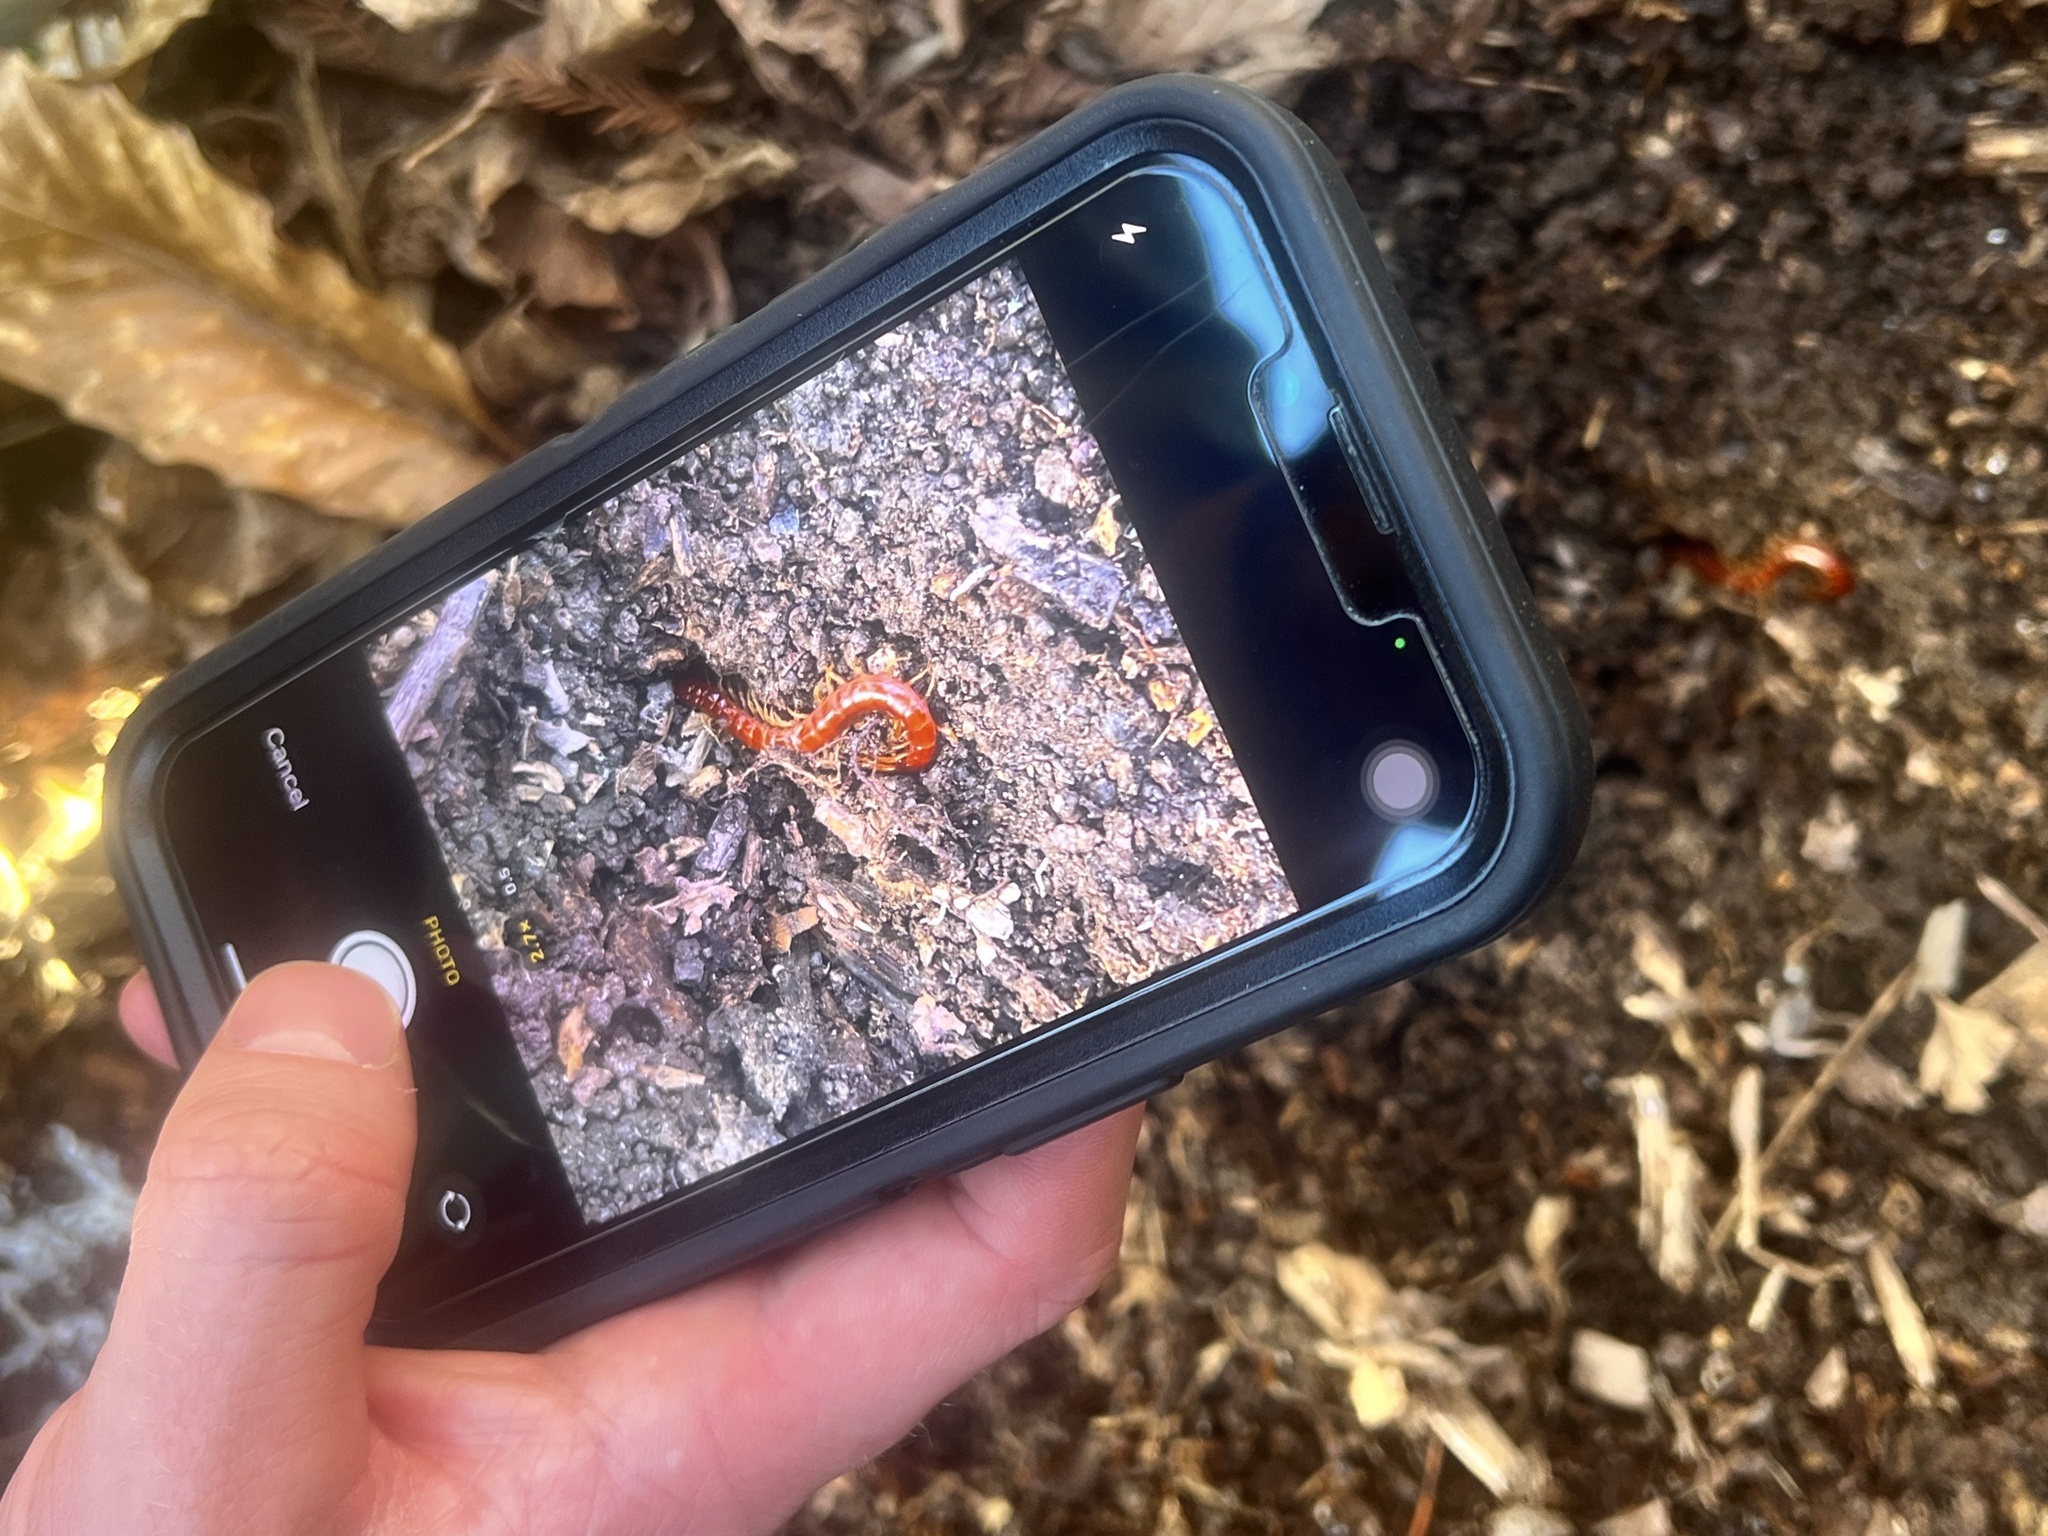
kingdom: Animalia
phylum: Arthropoda
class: Chilopoda
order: Scolopendromorpha
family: Scolopocryptopidae
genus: Scolopocryptops
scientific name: Scolopocryptops sexspinosus
